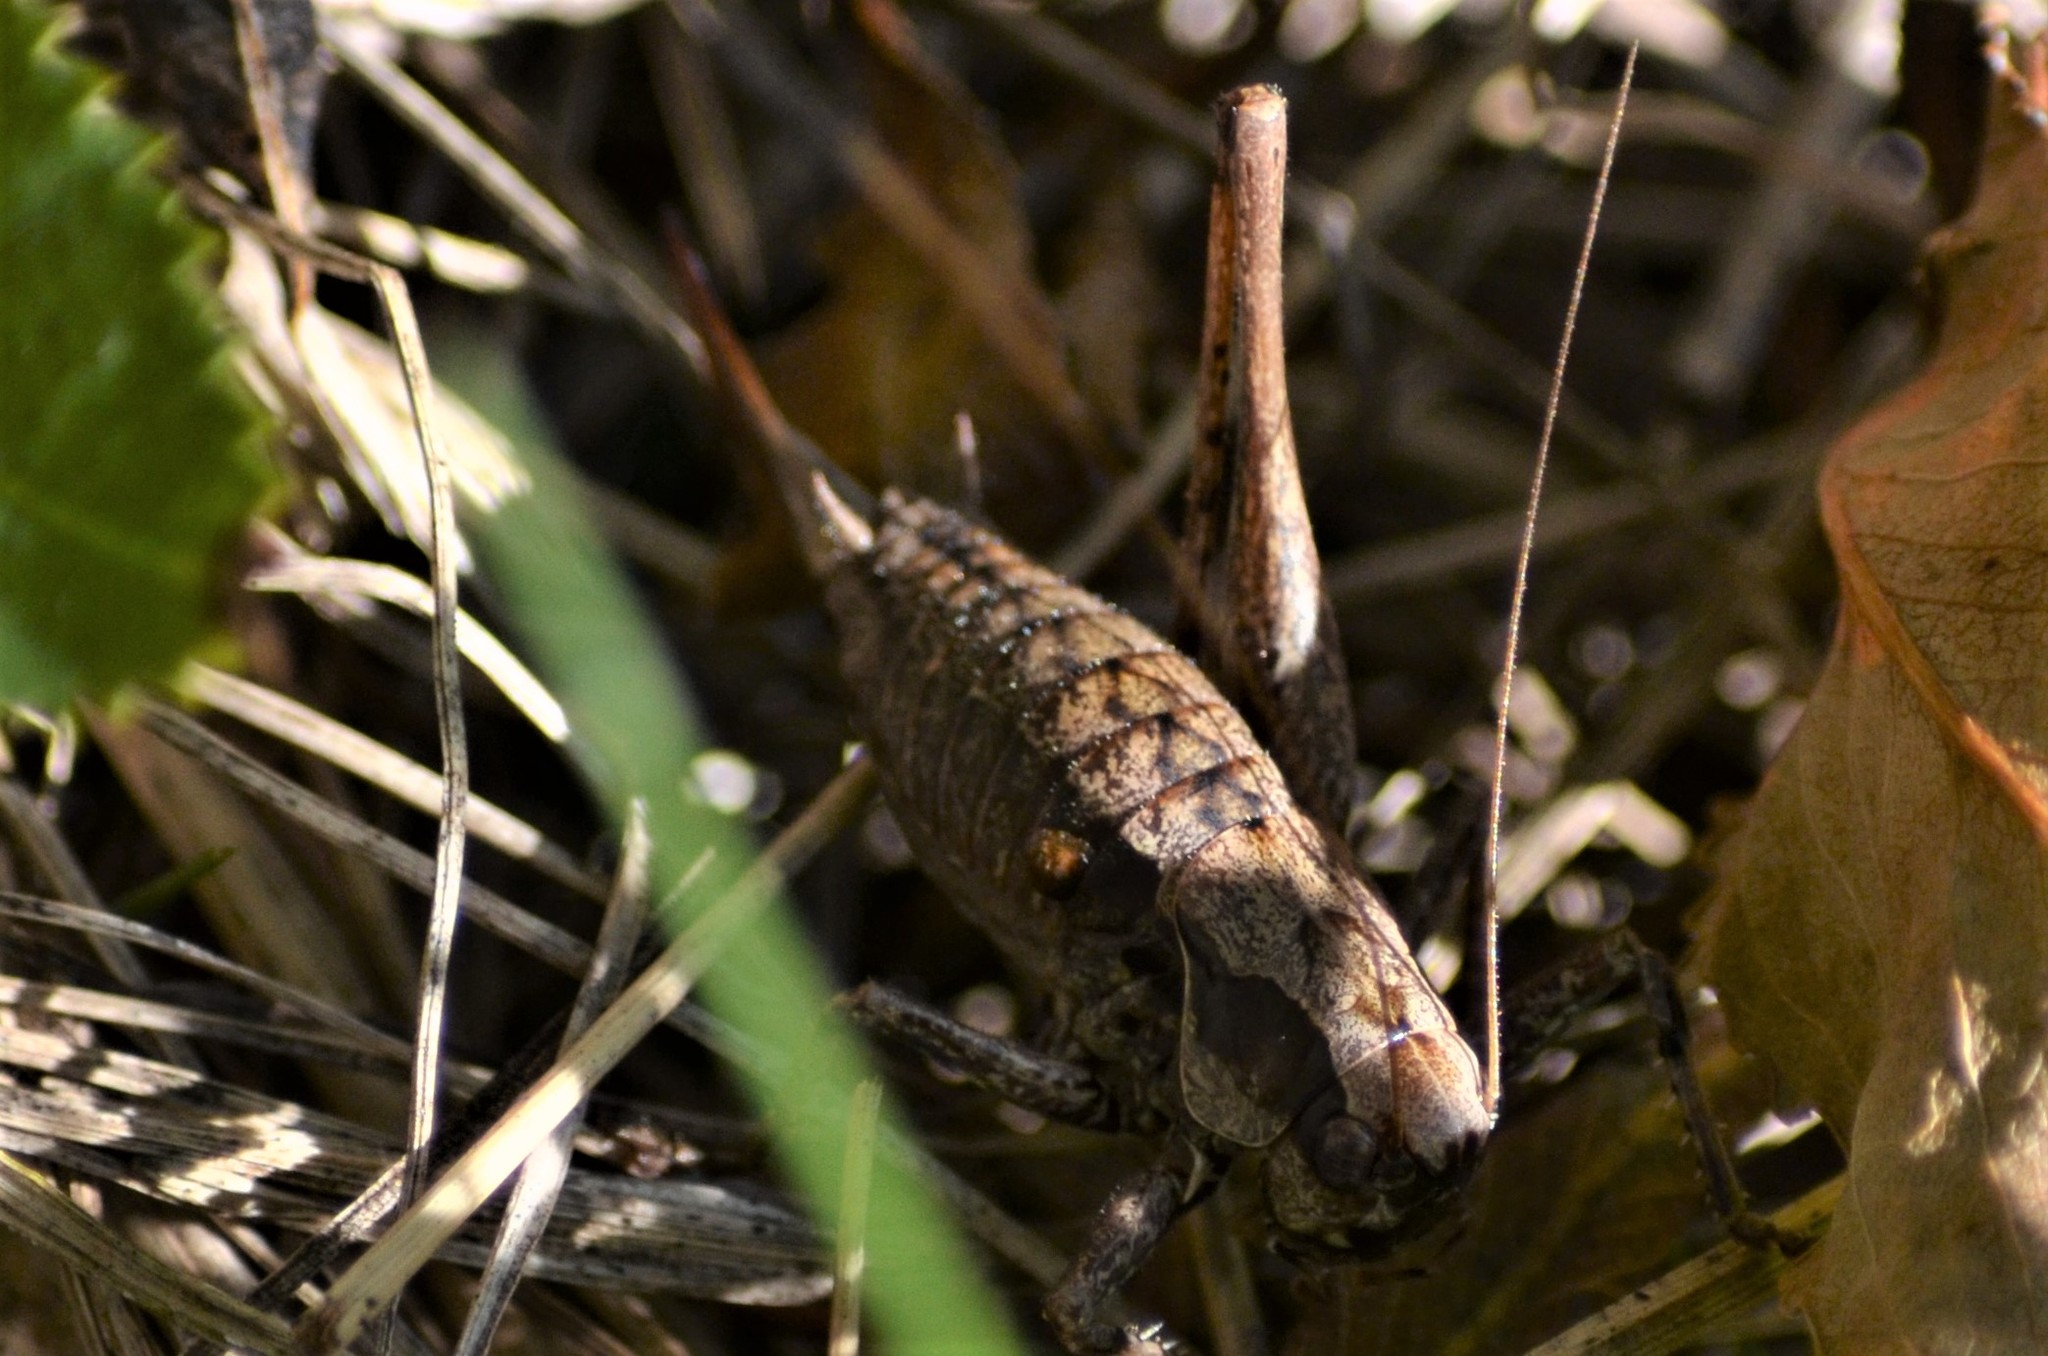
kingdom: Animalia
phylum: Arthropoda
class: Insecta
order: Orthoptera
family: Tettigoniidae
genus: Pholidoptera
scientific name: Pholidoptera griseoaptera
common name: Dark bush-cricket
